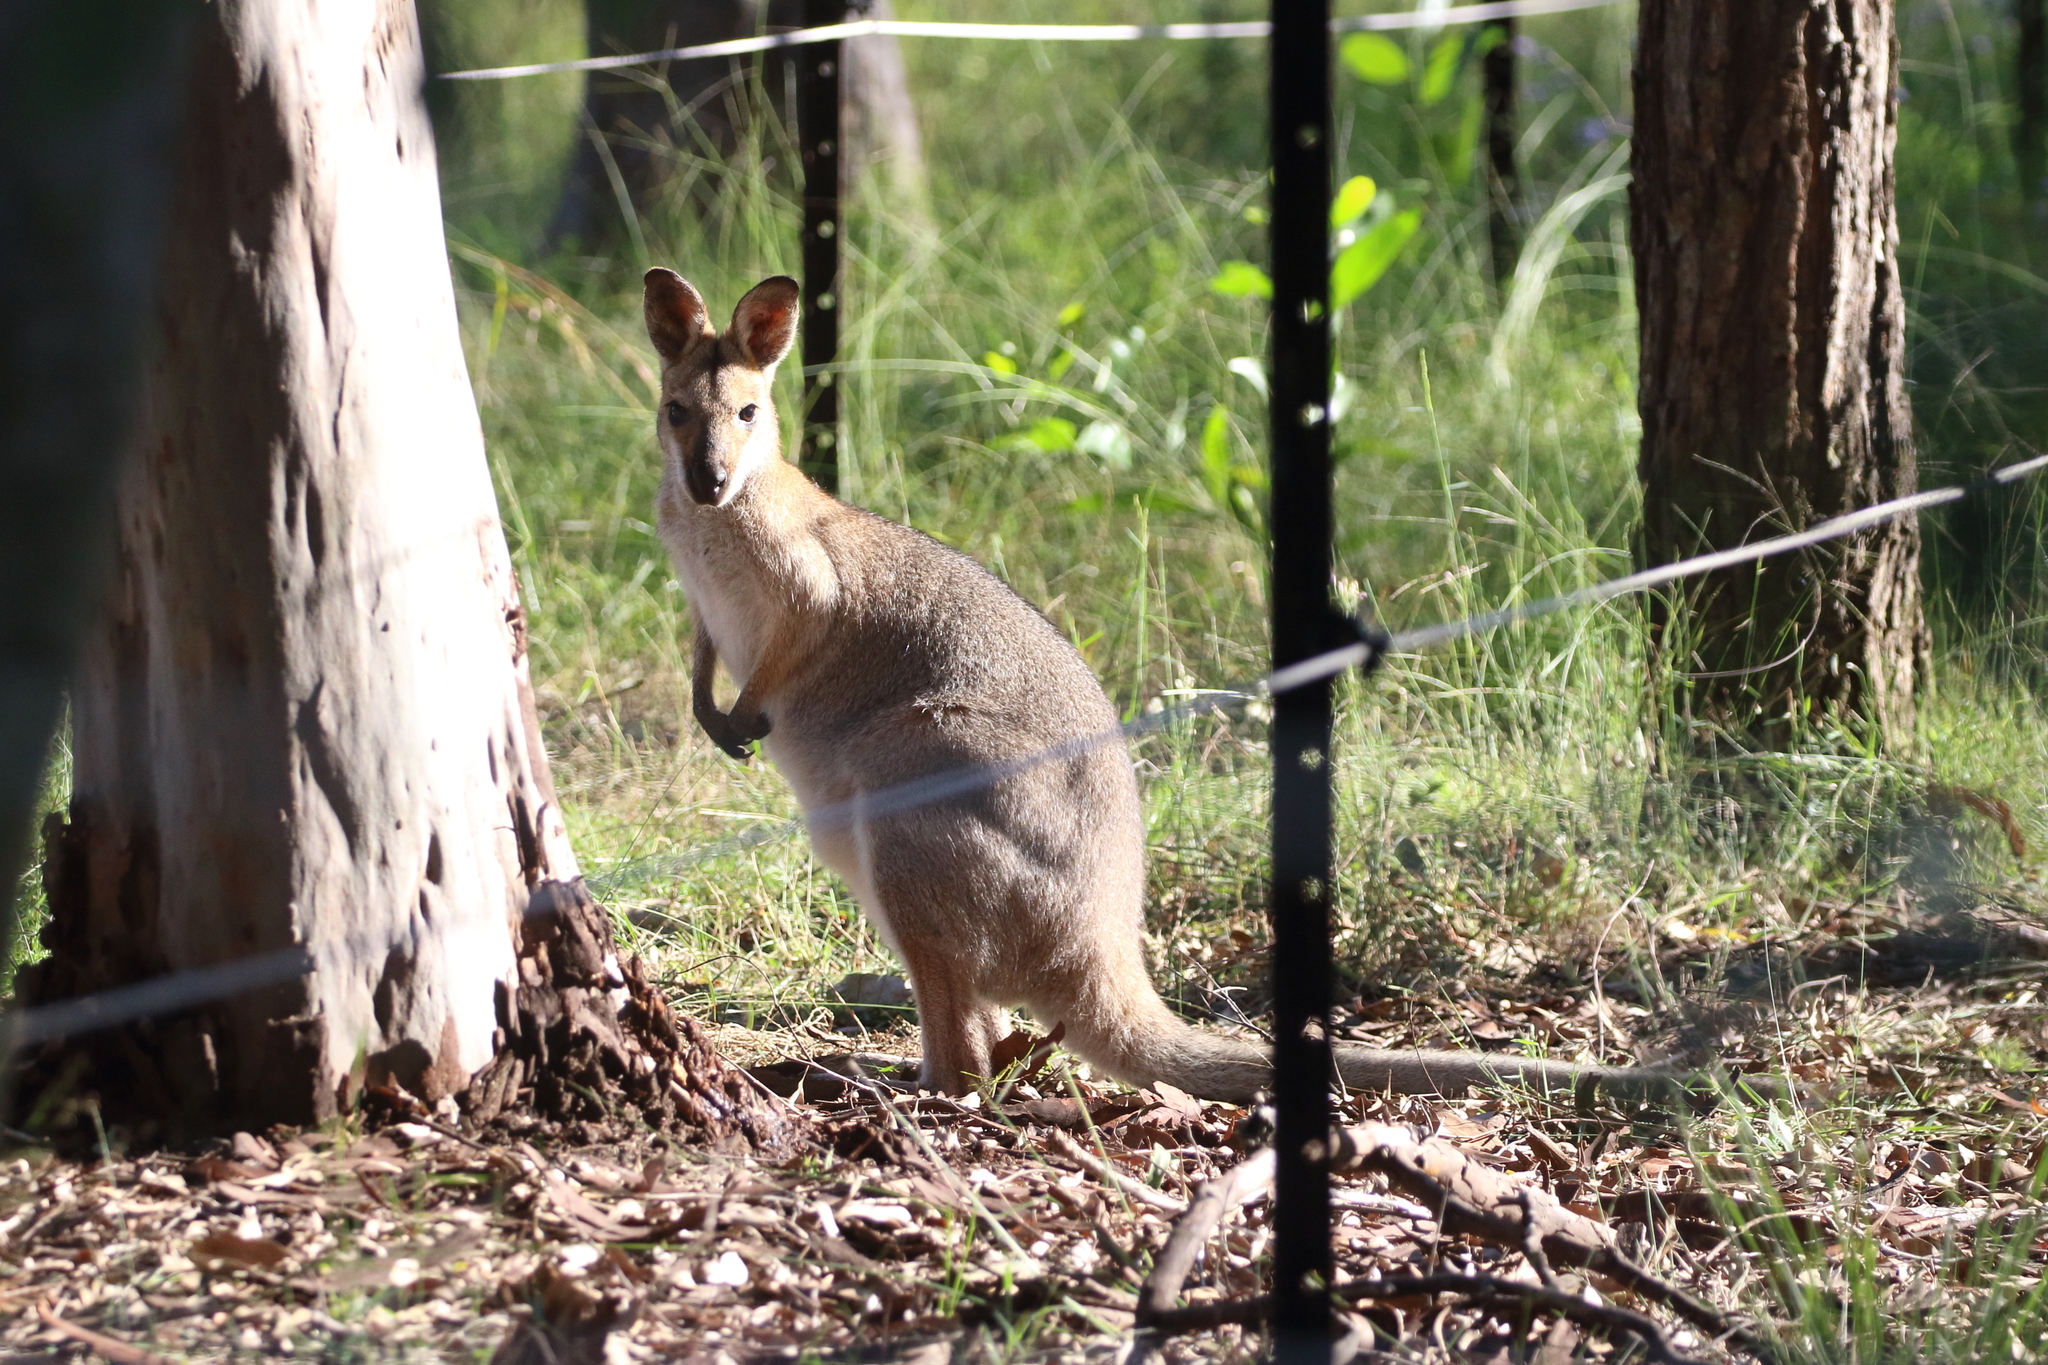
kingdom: Animalia
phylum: Chordata
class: Mammalia
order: Diprotodontia
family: Macropodidae
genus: Notamacropus
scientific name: Notamacropus rufogriseus
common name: Red-necked wallaby
